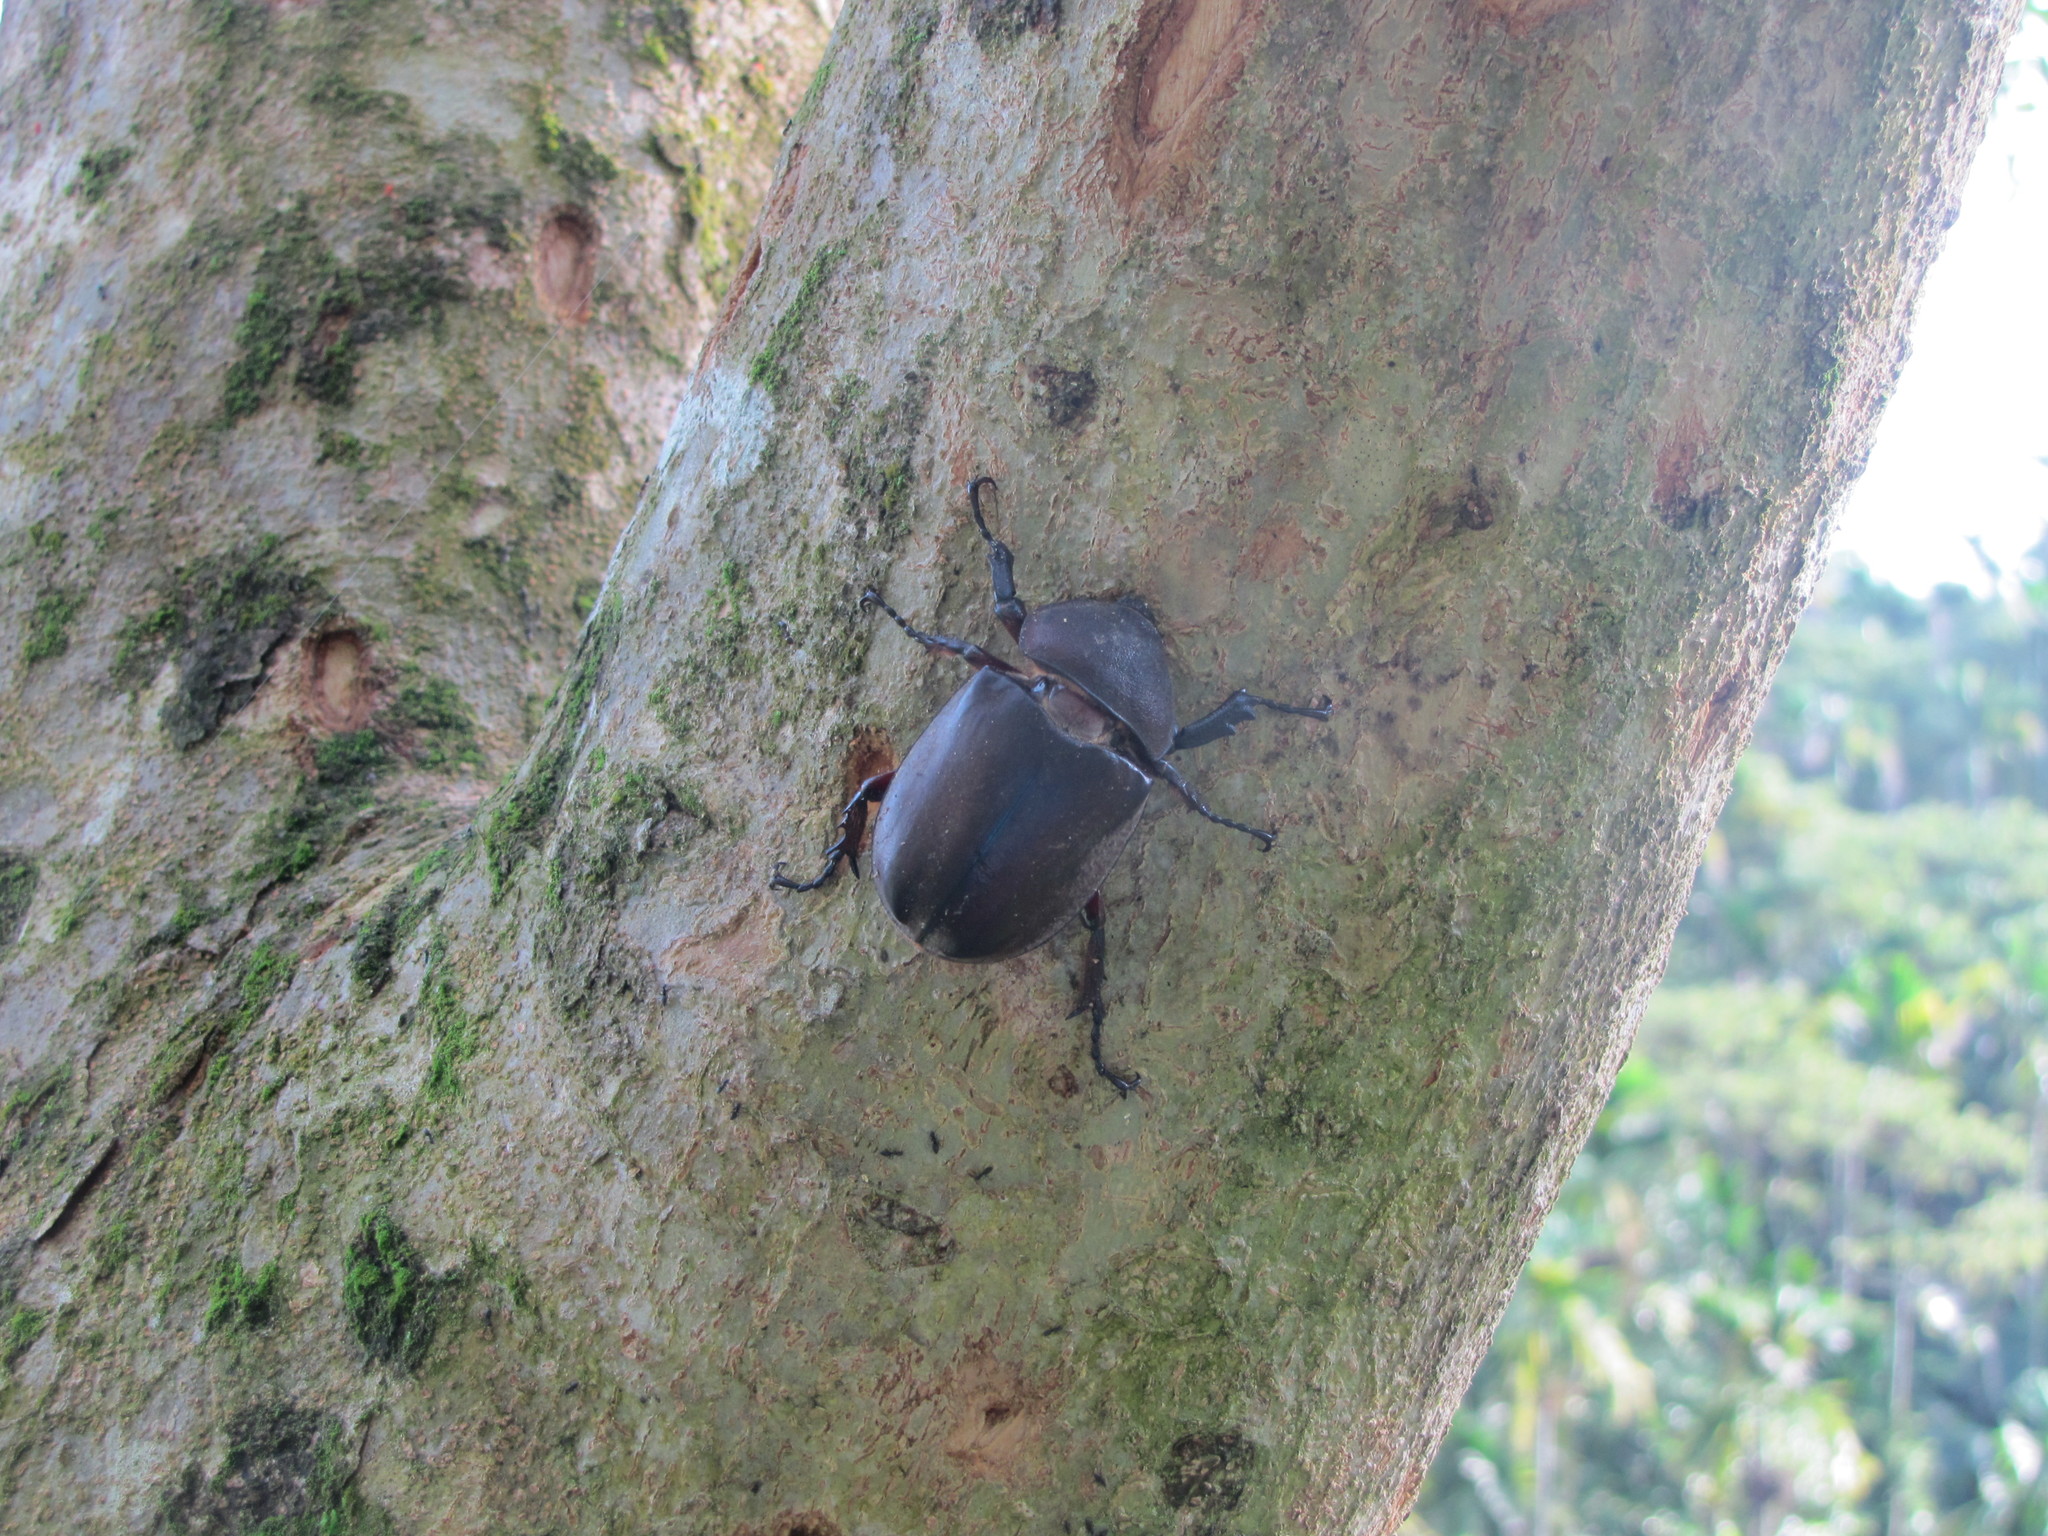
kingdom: Animalia
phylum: Arthropoda
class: Insecta
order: Coleoptera
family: Scarabaeidae
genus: Trypoxylus
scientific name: Trypoxylus dichotomus
